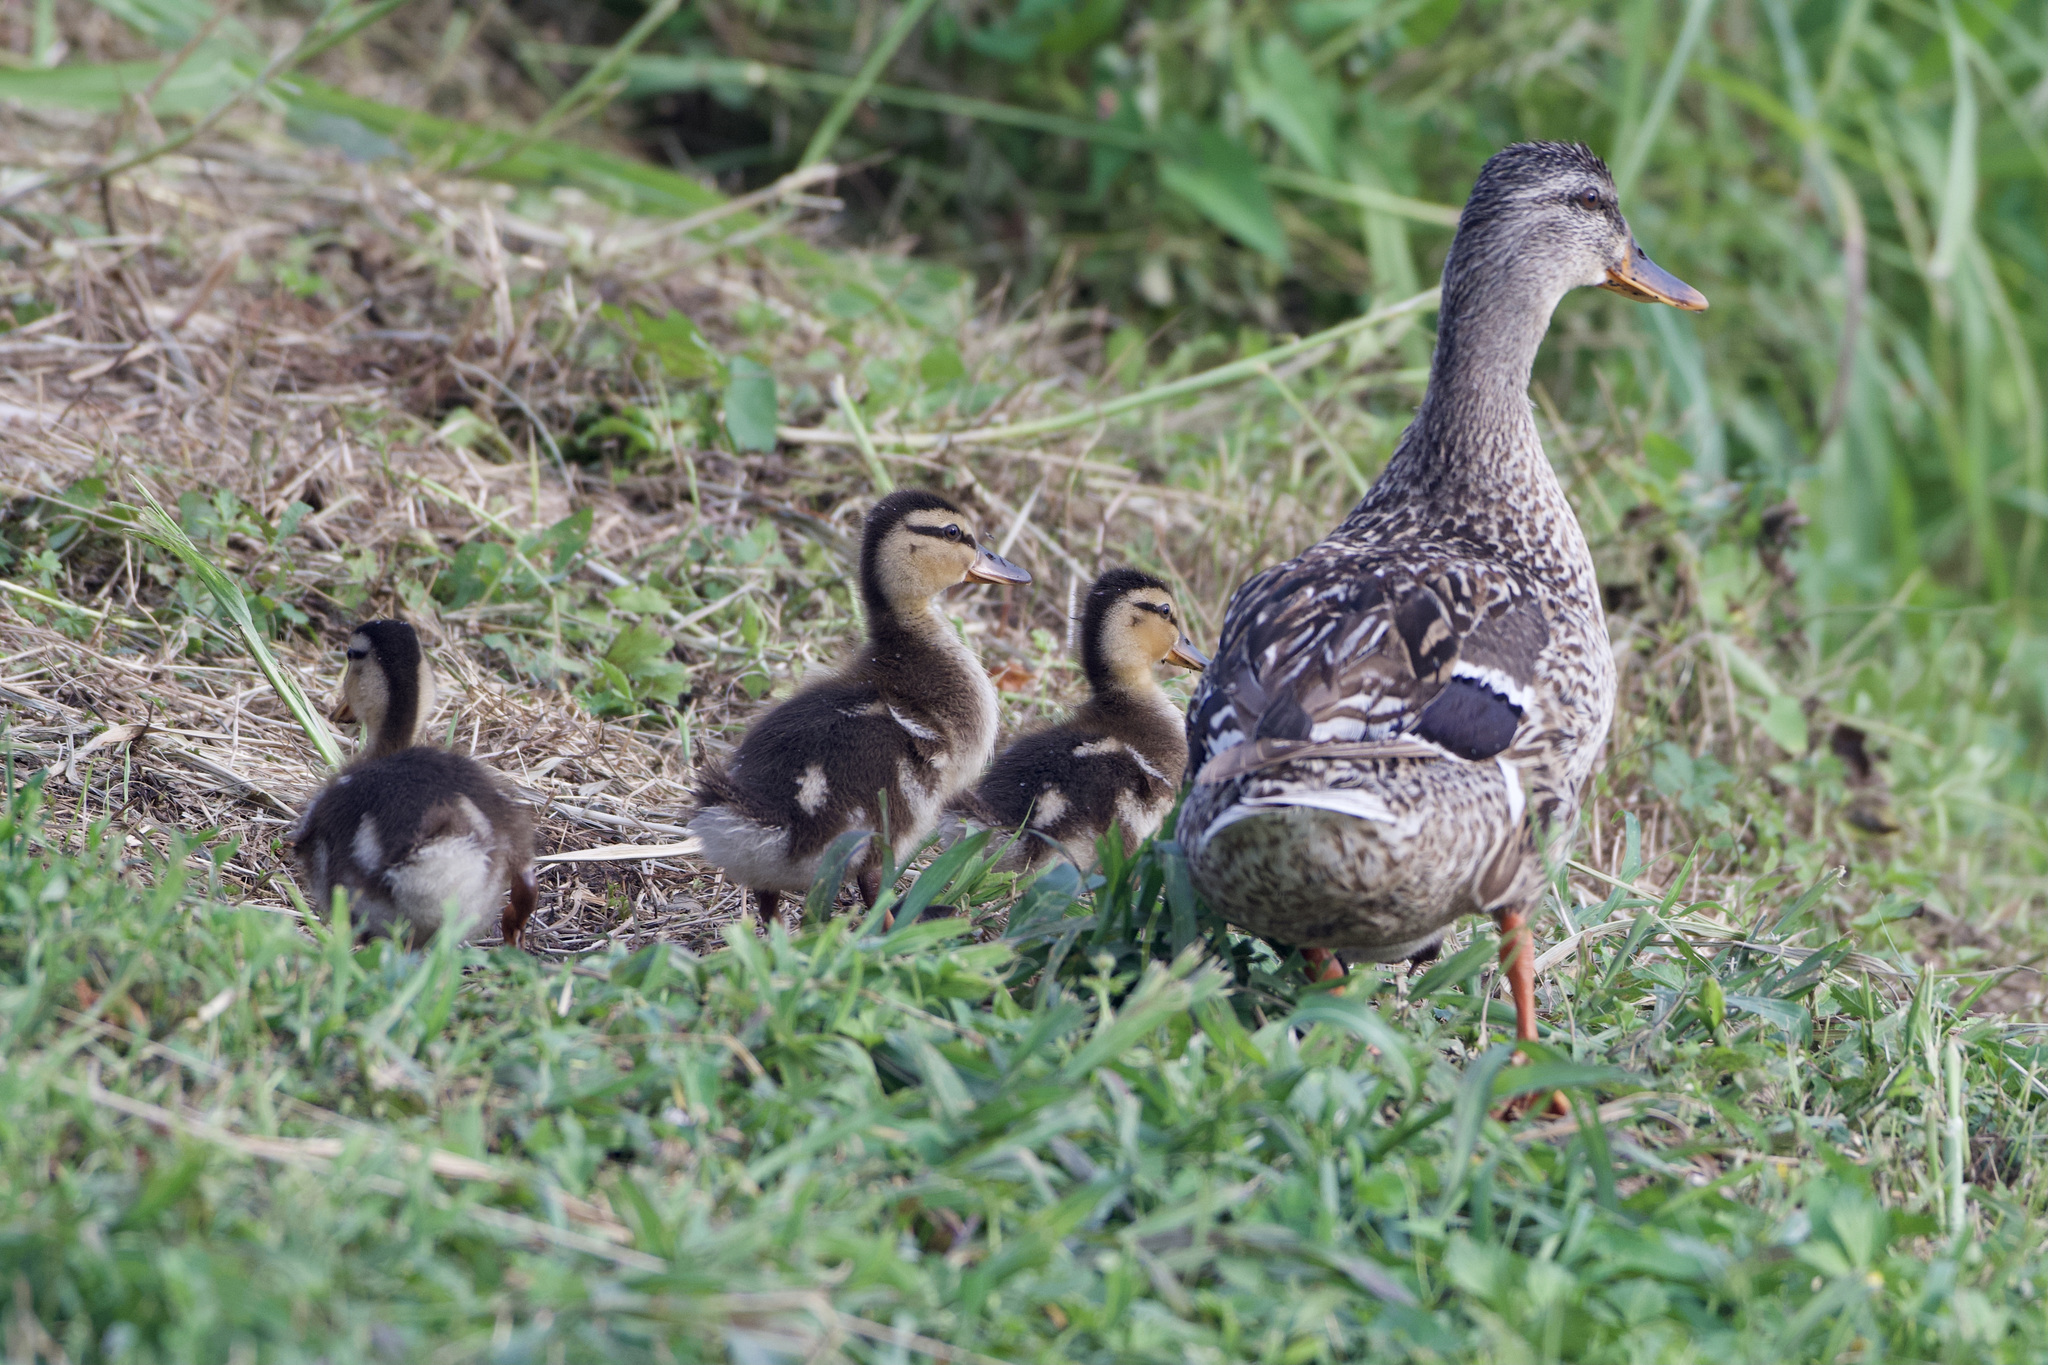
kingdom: Animalia
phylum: Chordata
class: Aves
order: Anseriformes
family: Anatidae
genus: Anas
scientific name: Anas platyrhynchos
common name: Mallard
